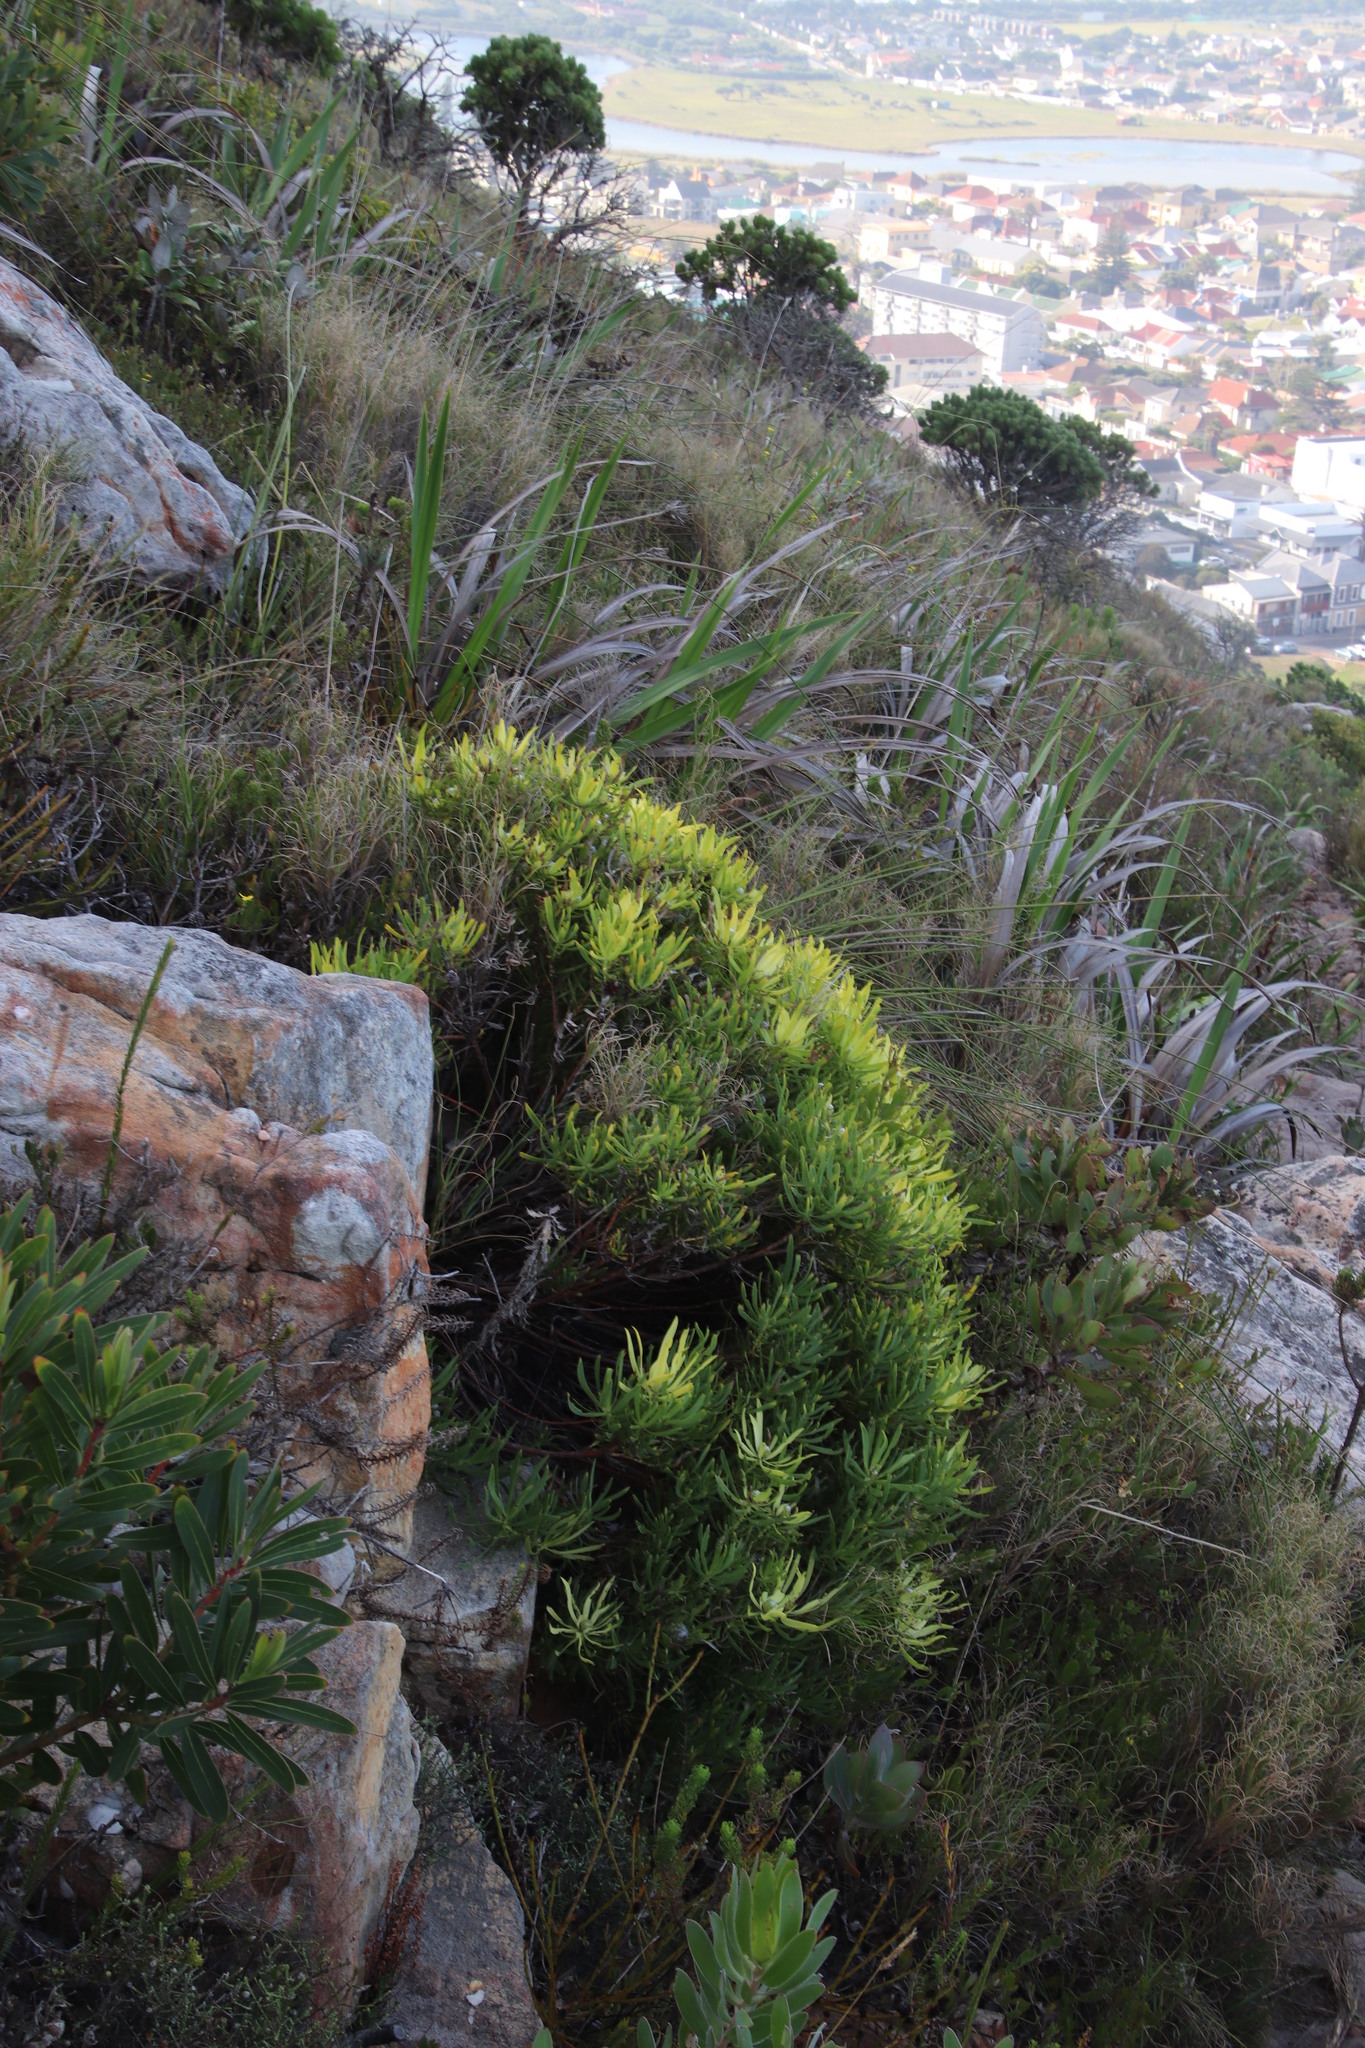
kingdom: Plantae
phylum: Tracheophyta
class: Magnoliopsida
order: Proteales
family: Proteaceae
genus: Leucadendron
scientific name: Leucadendron salignum
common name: Common sunshine conebush
